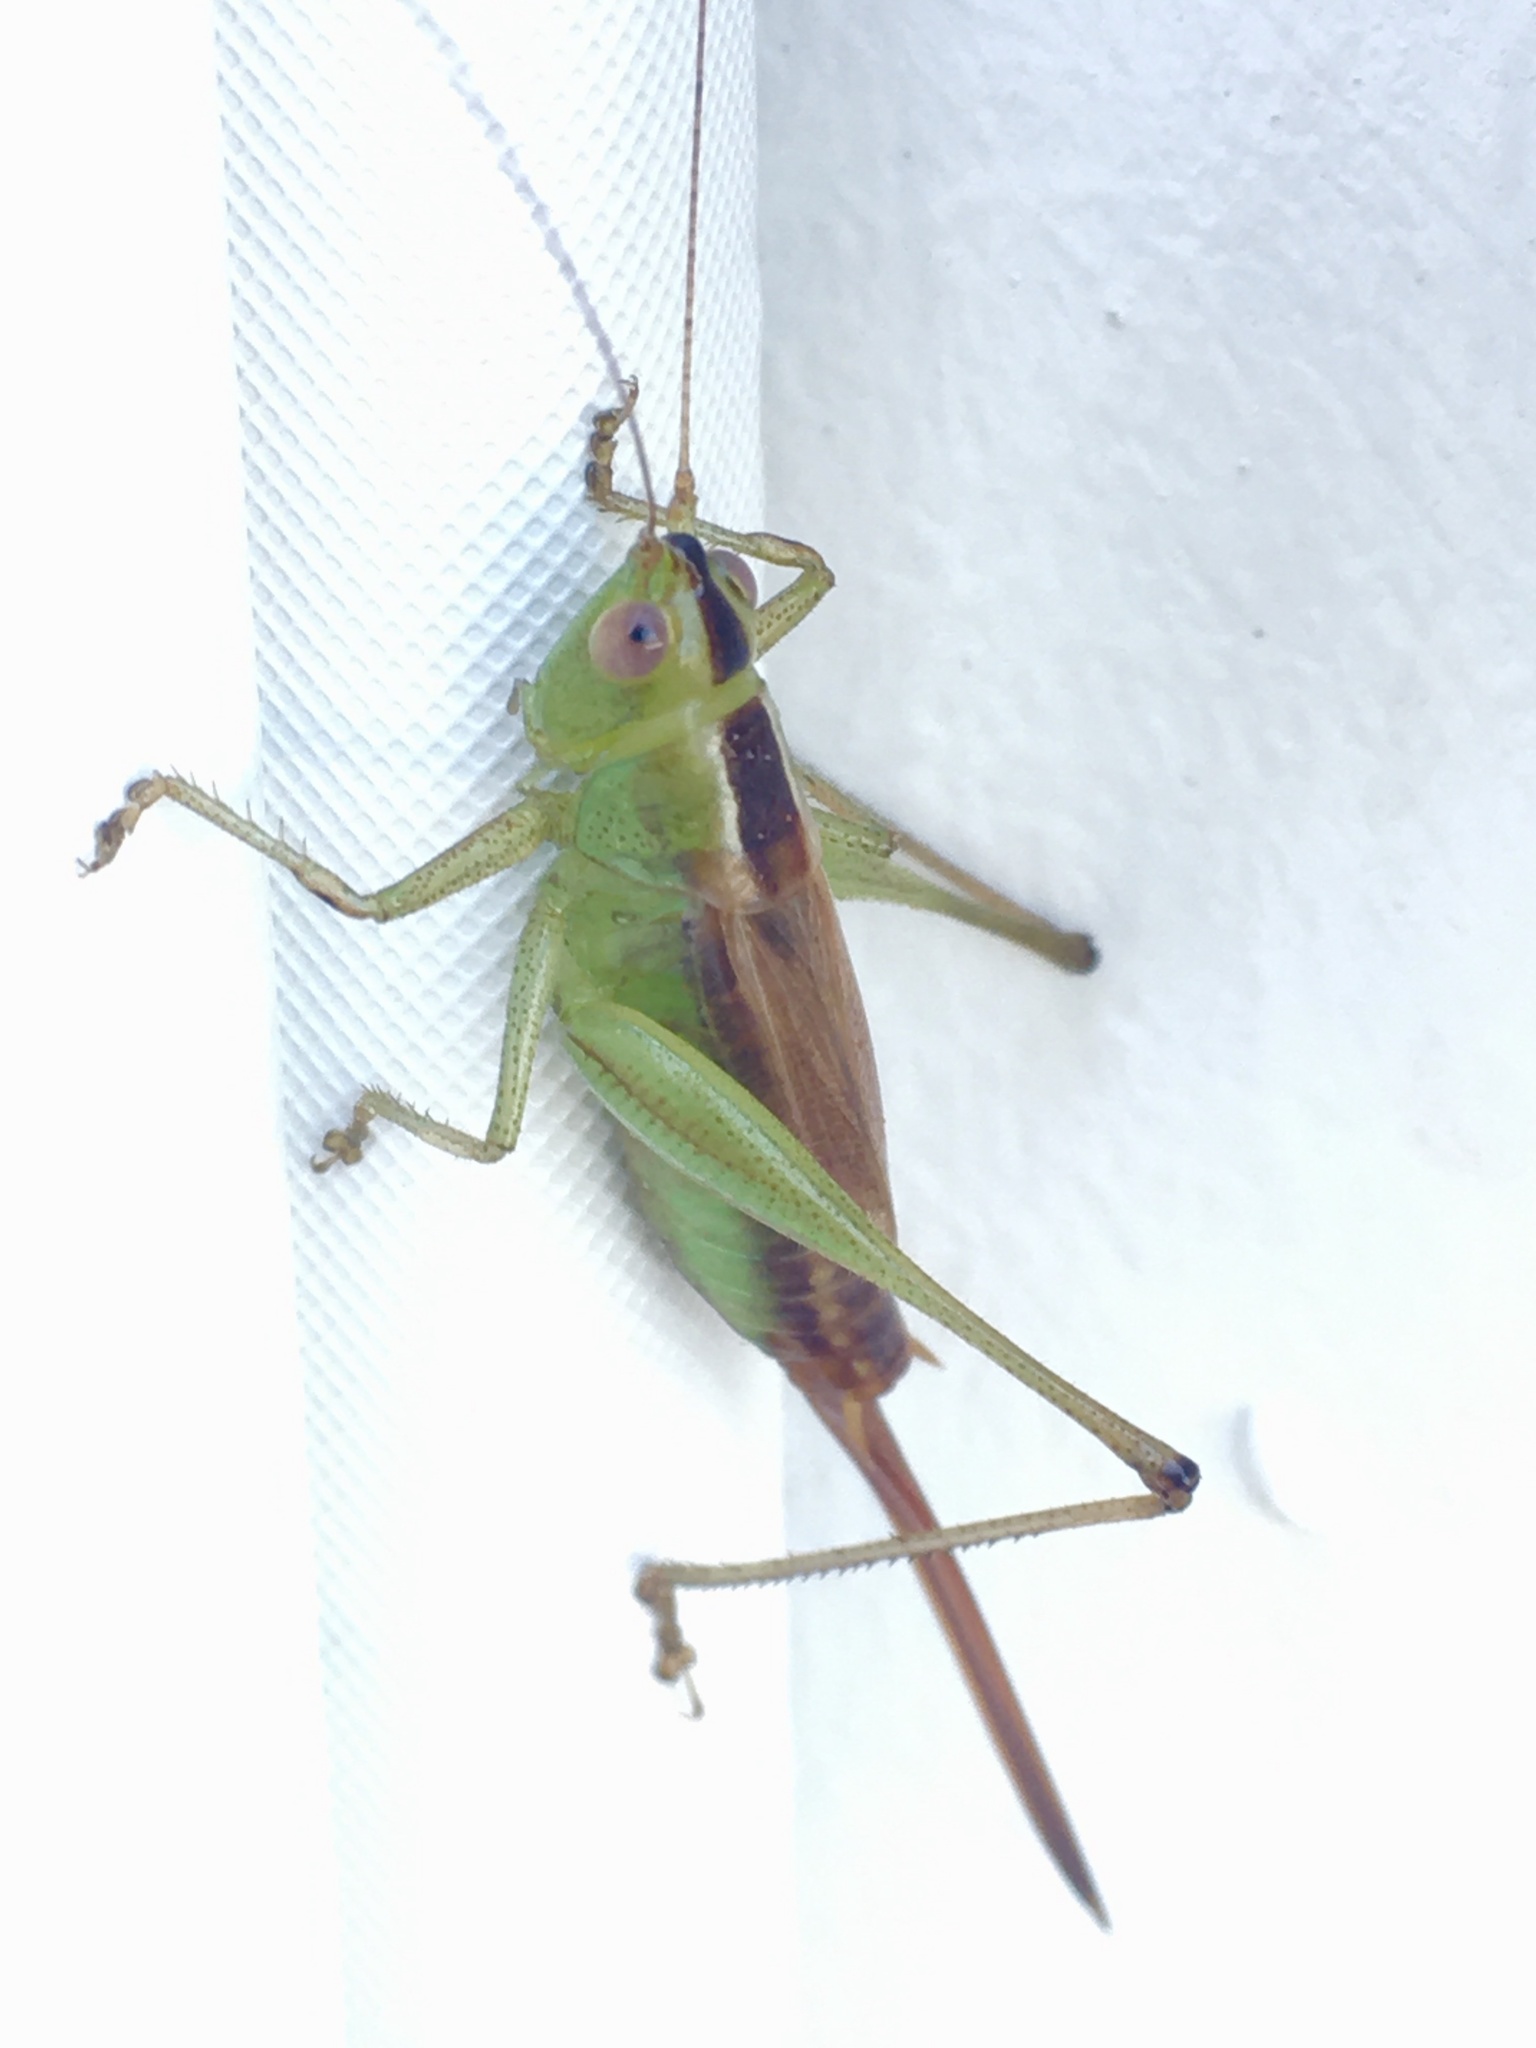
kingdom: Animalia
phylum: Arthropoda
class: Insecta
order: Orthoptera
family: Tettigoniidae
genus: Conocephalus
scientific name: Conocephalus brevipennis
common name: Short-winged meadow katydid
